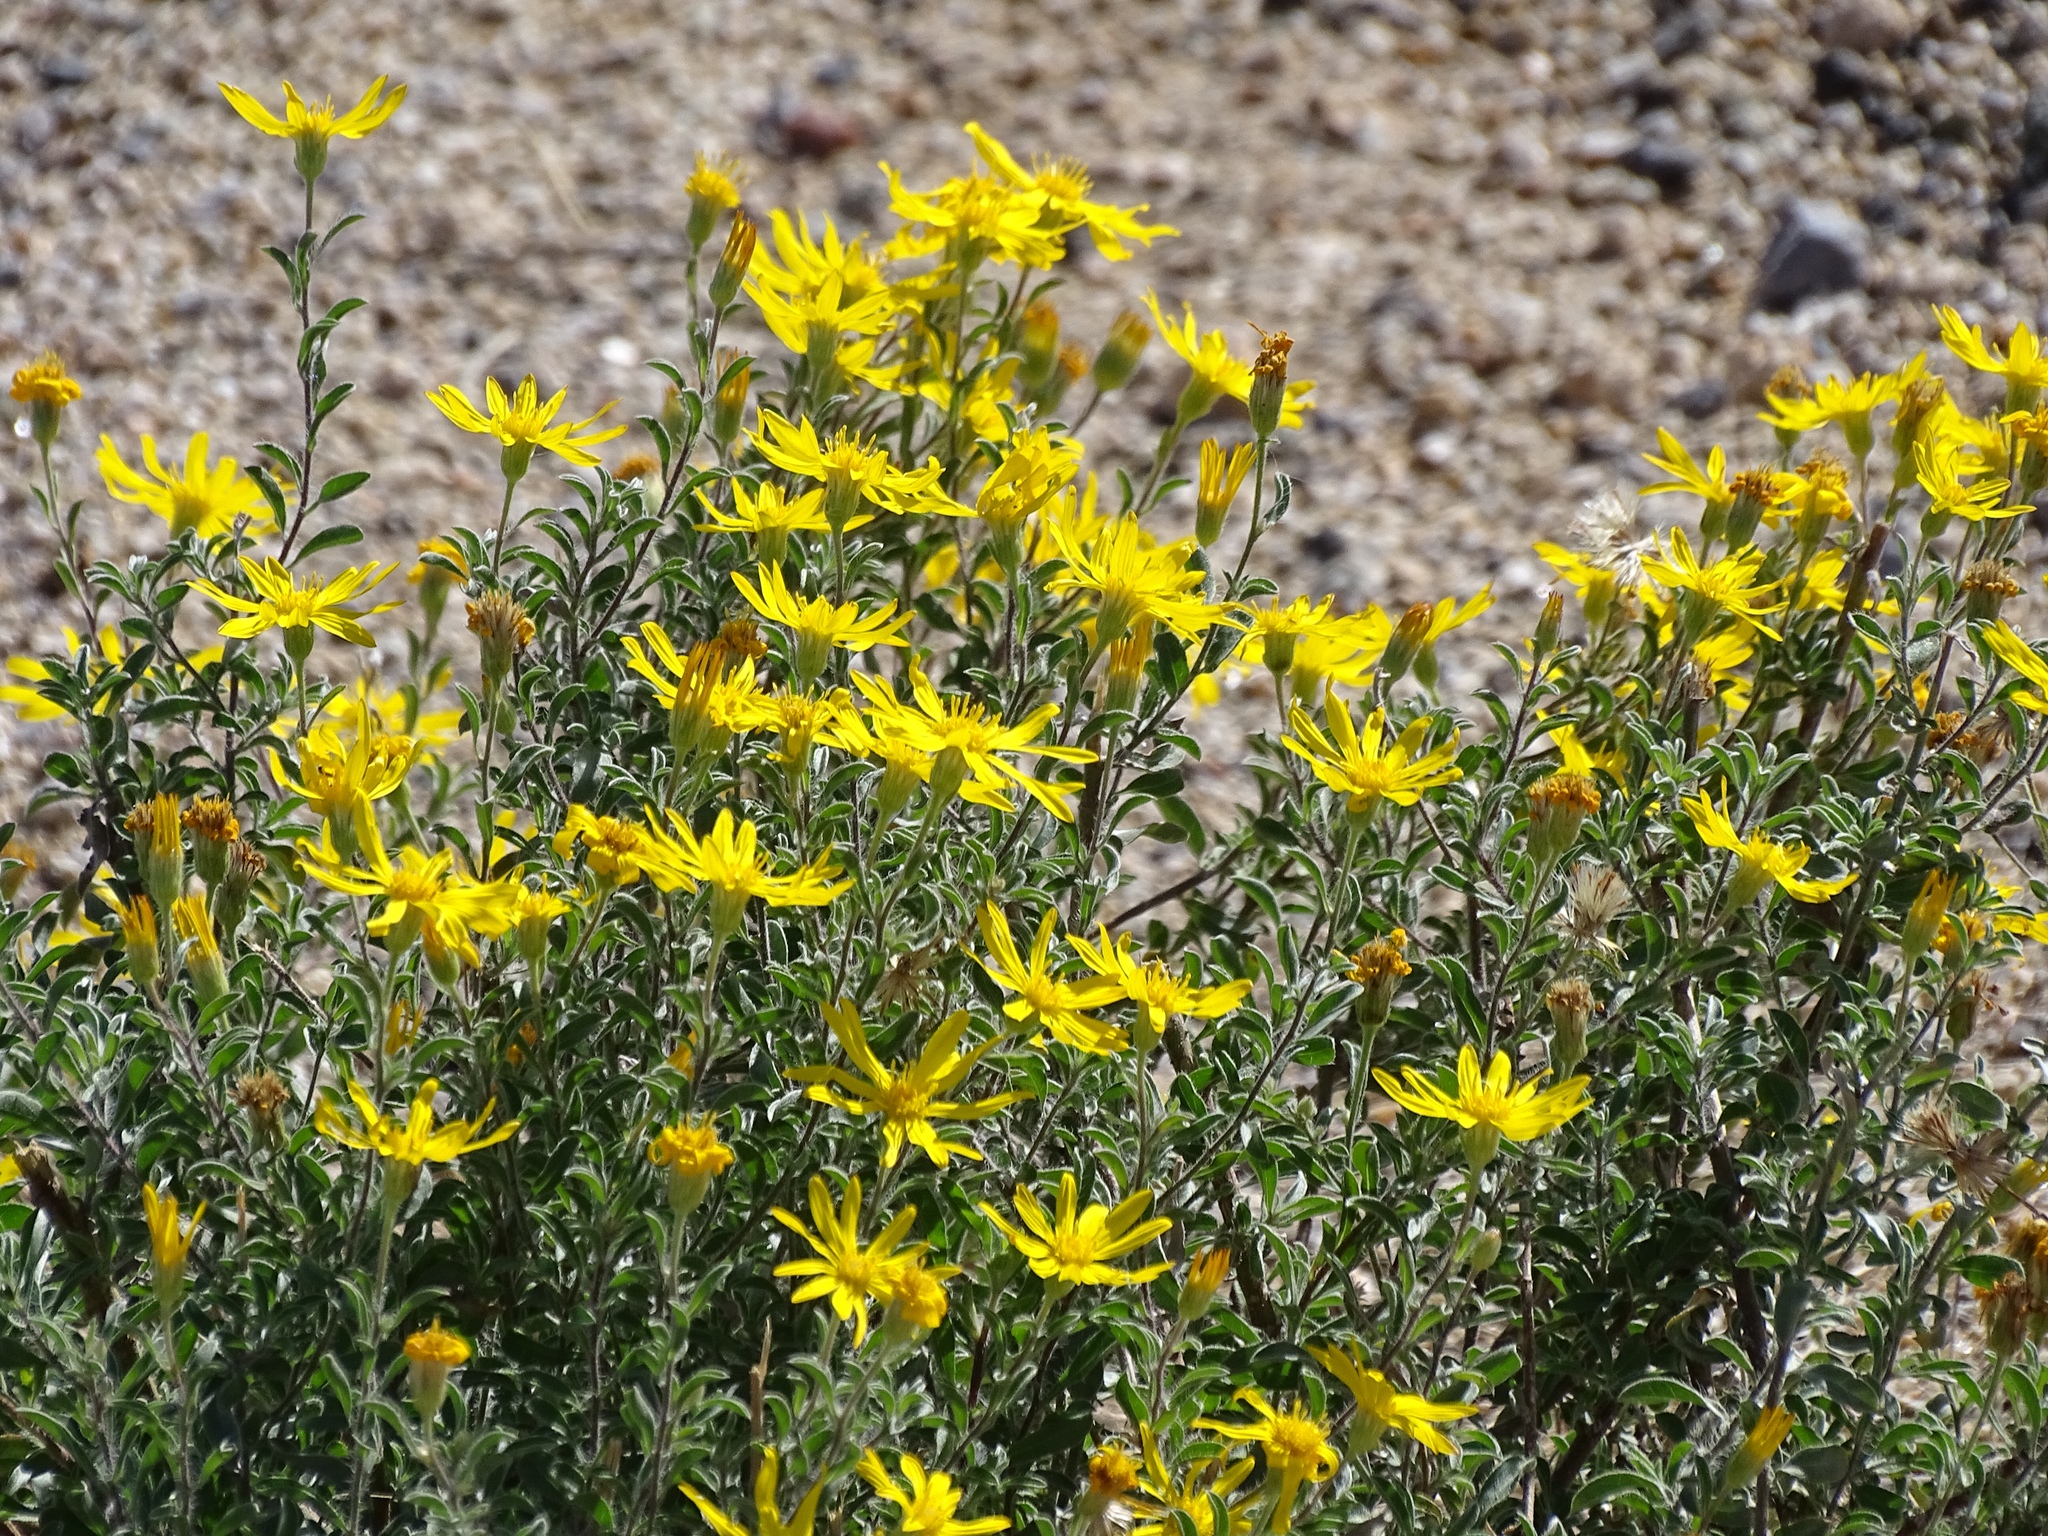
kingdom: Plantae
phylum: Tracheophyta
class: Magnoliopsida
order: Asterales
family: Asteraceae
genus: Heterotheca
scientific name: Heterotheca zionensis
